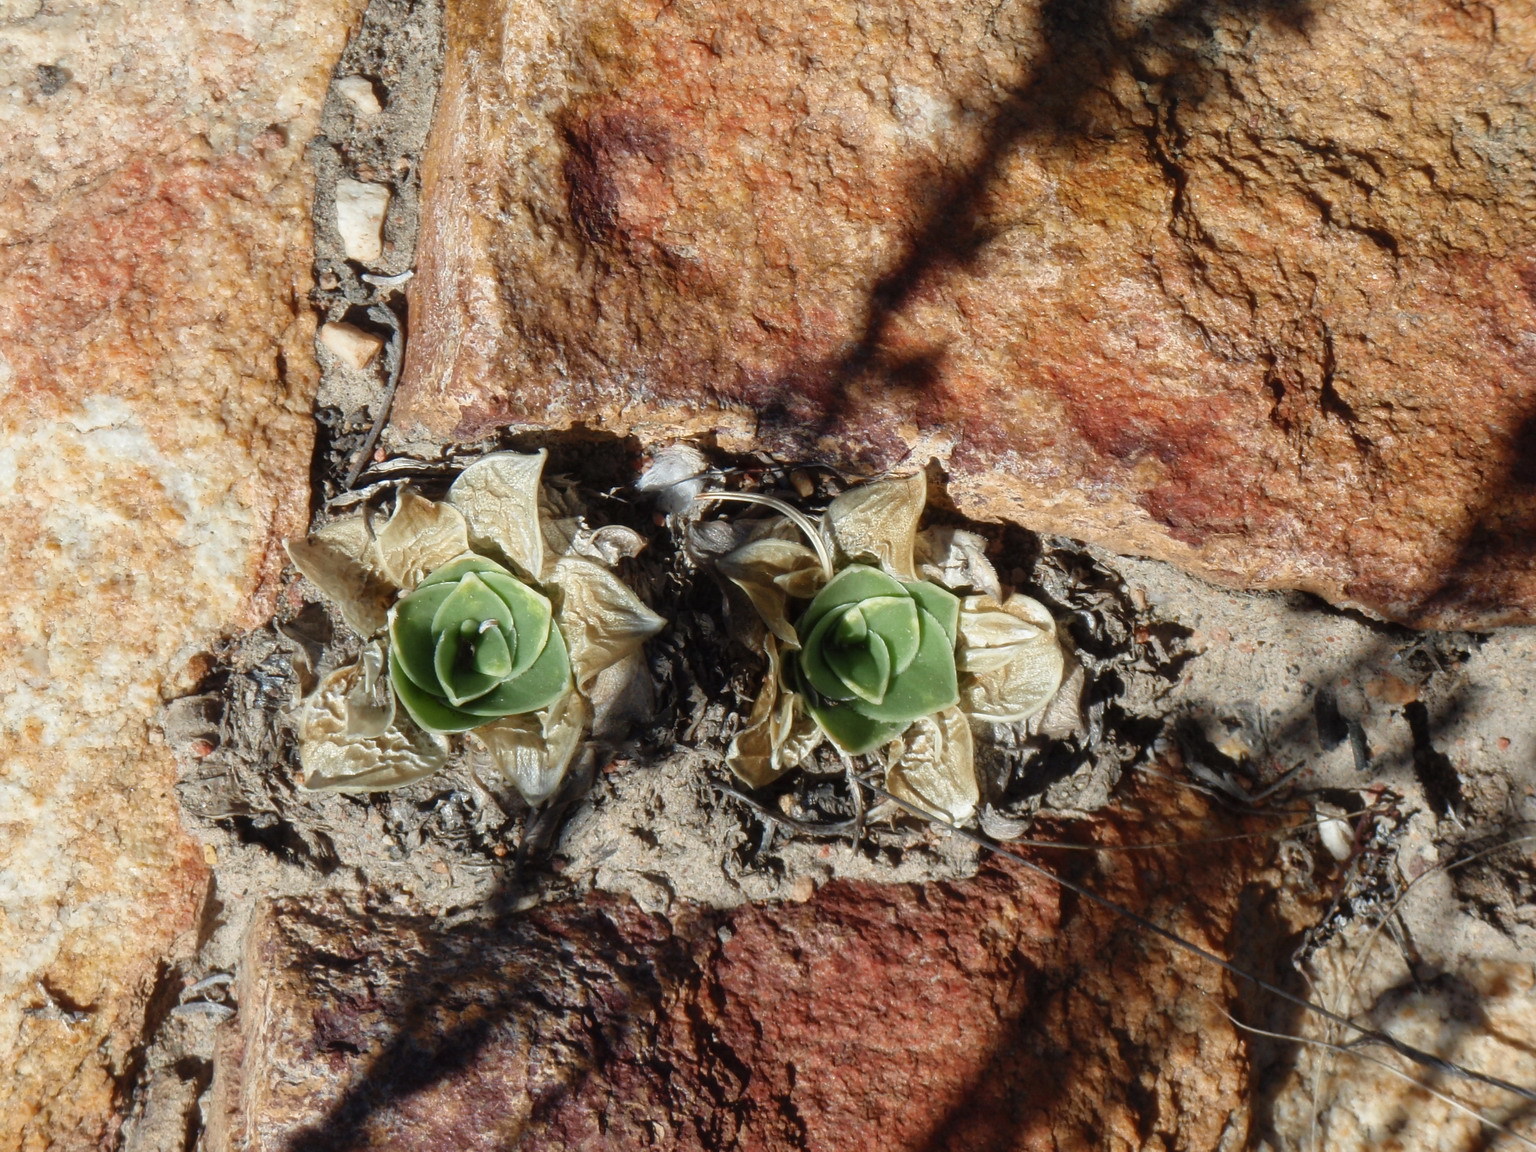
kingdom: Plantae
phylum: Tracheophyta
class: Liliopsida
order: Asparagales
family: Asparagaceae
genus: Drimia
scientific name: Drimia ciliata
